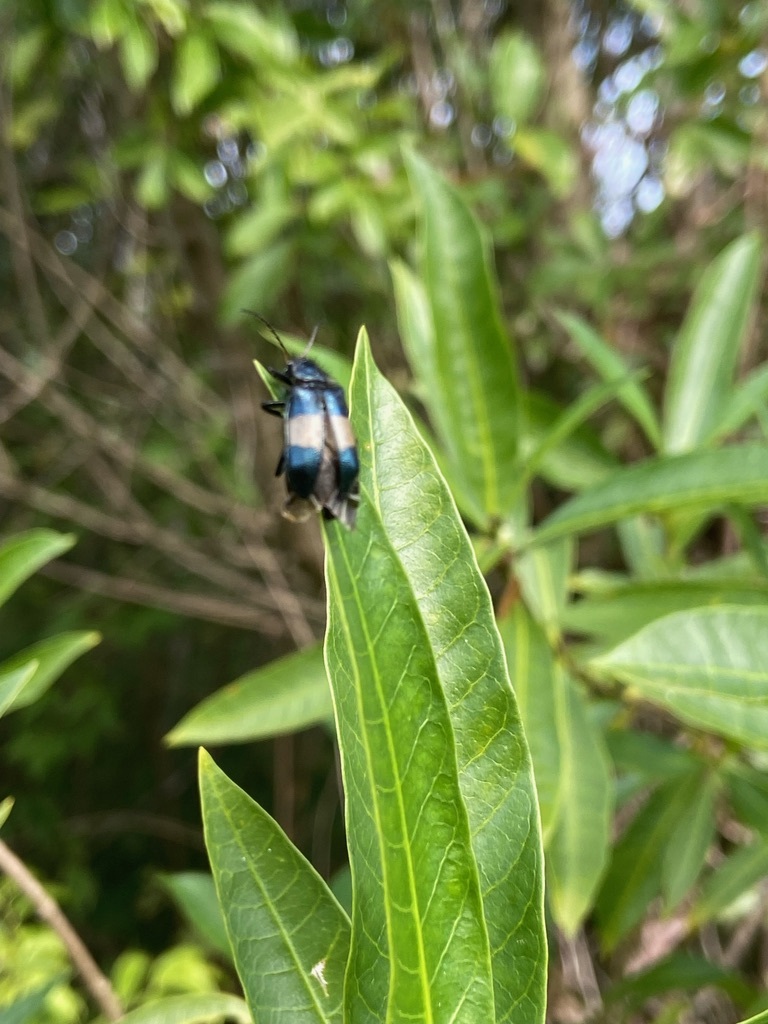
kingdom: Animalia
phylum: Arthropoda
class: Insecta
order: Coleoptera
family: Melyridae
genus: Astylus
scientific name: Astylus
